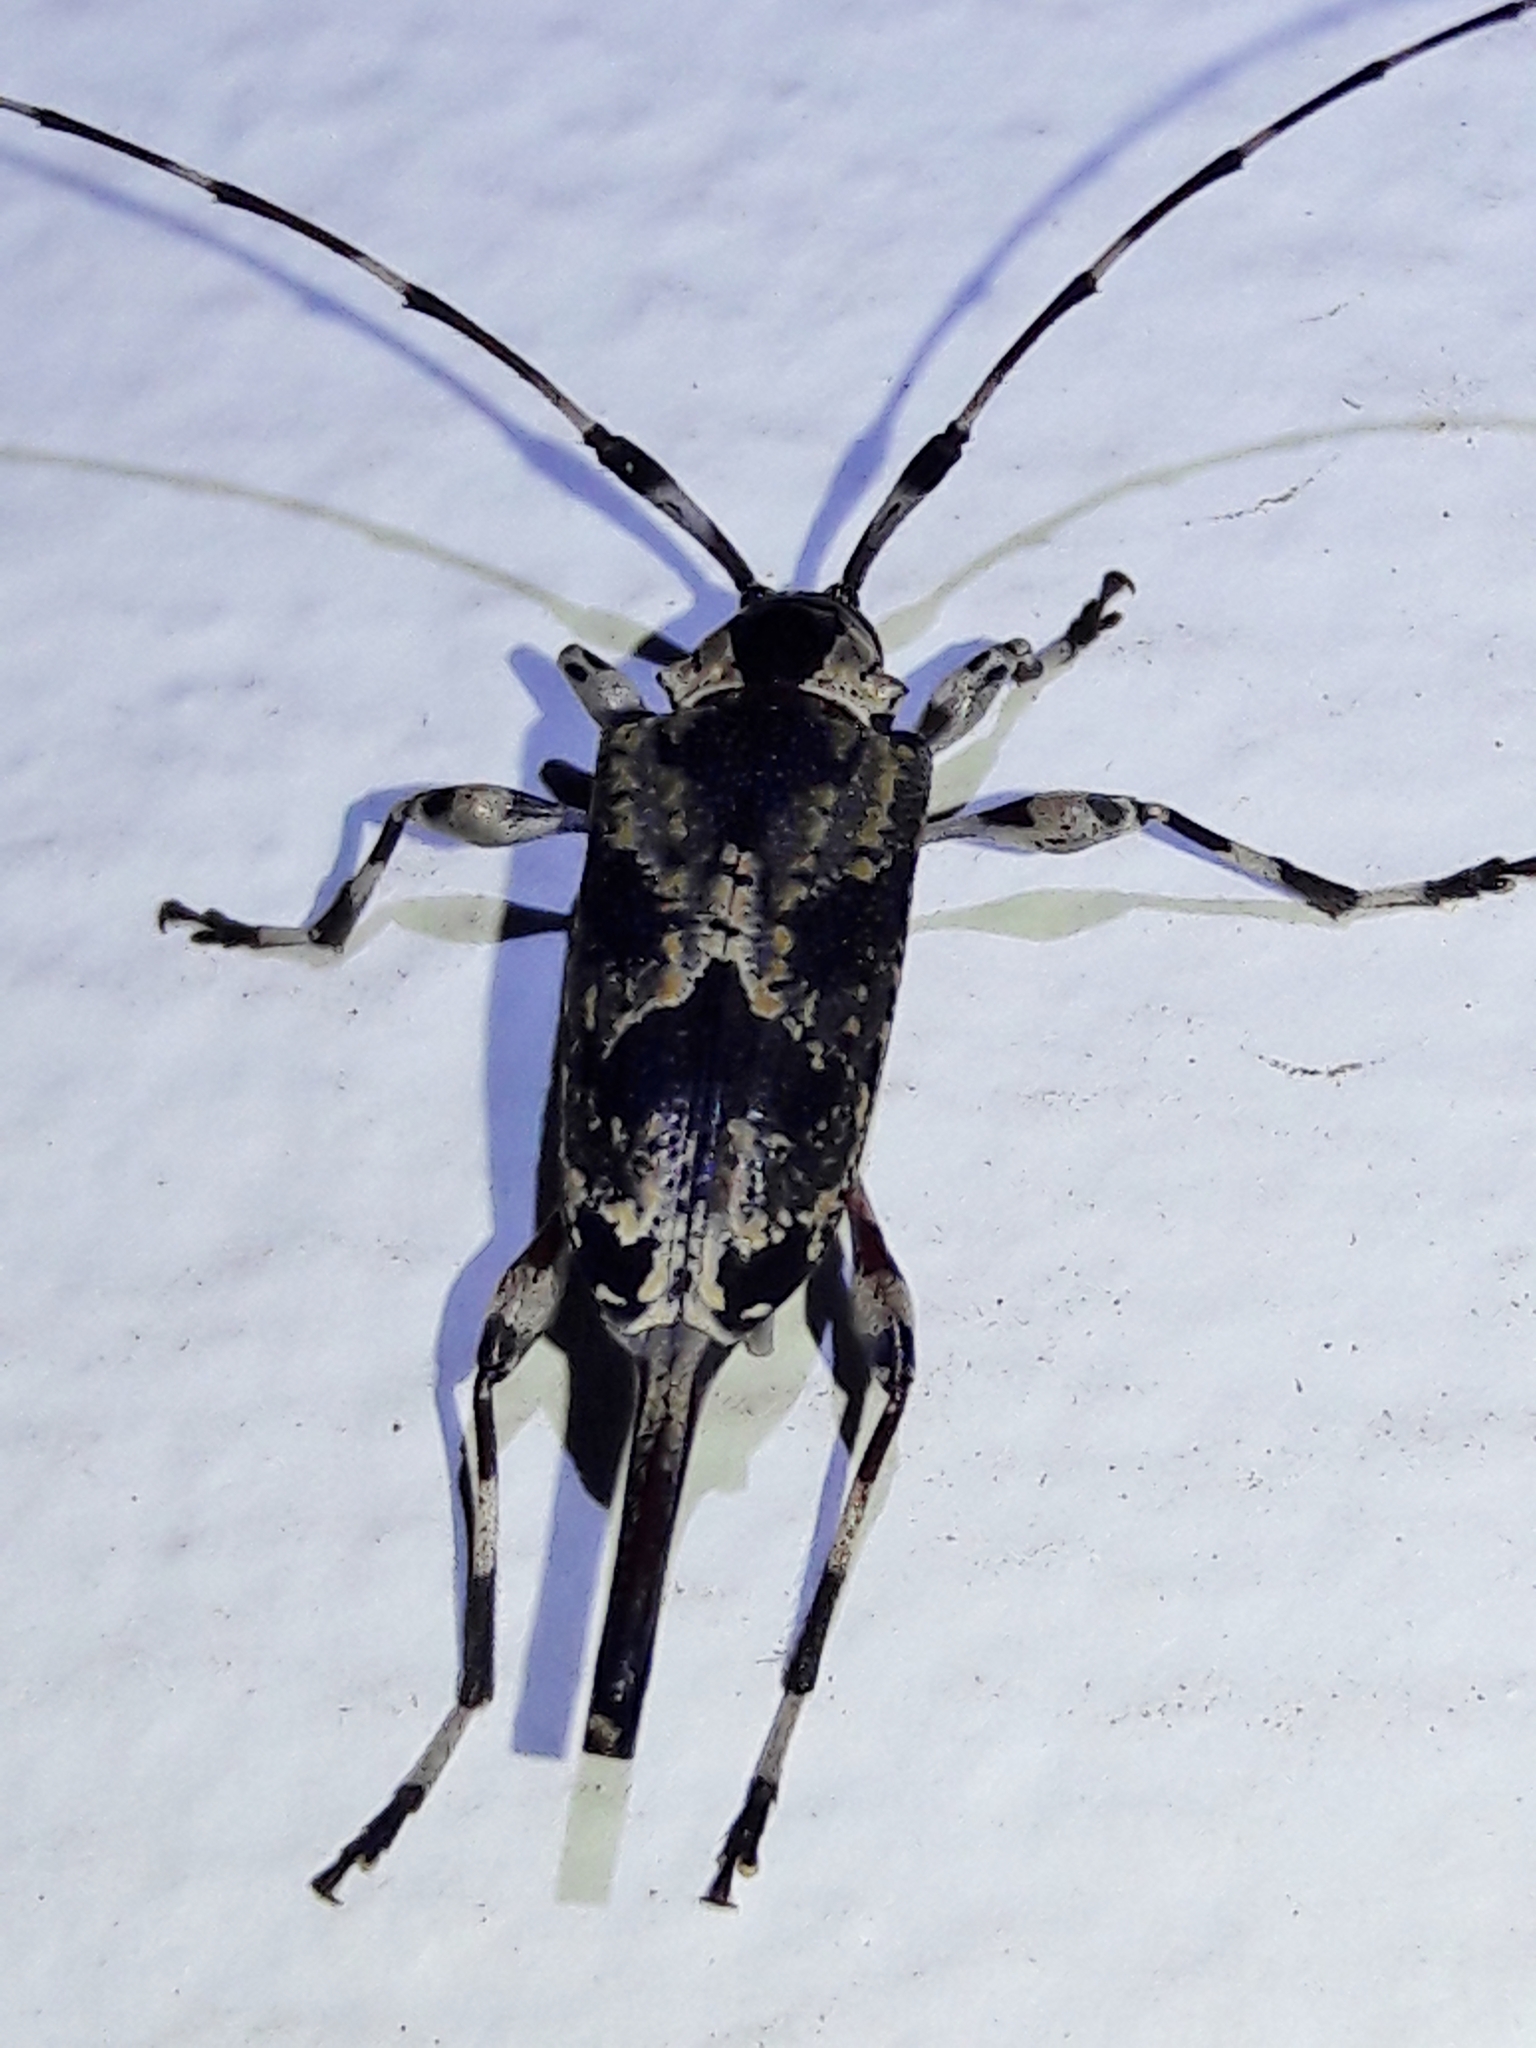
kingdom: Animalia
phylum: Arthropoda
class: Insecta
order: Coleoptera
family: Cerambycidae
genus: Eutrypanus
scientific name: Eutrypanus dorsalis
